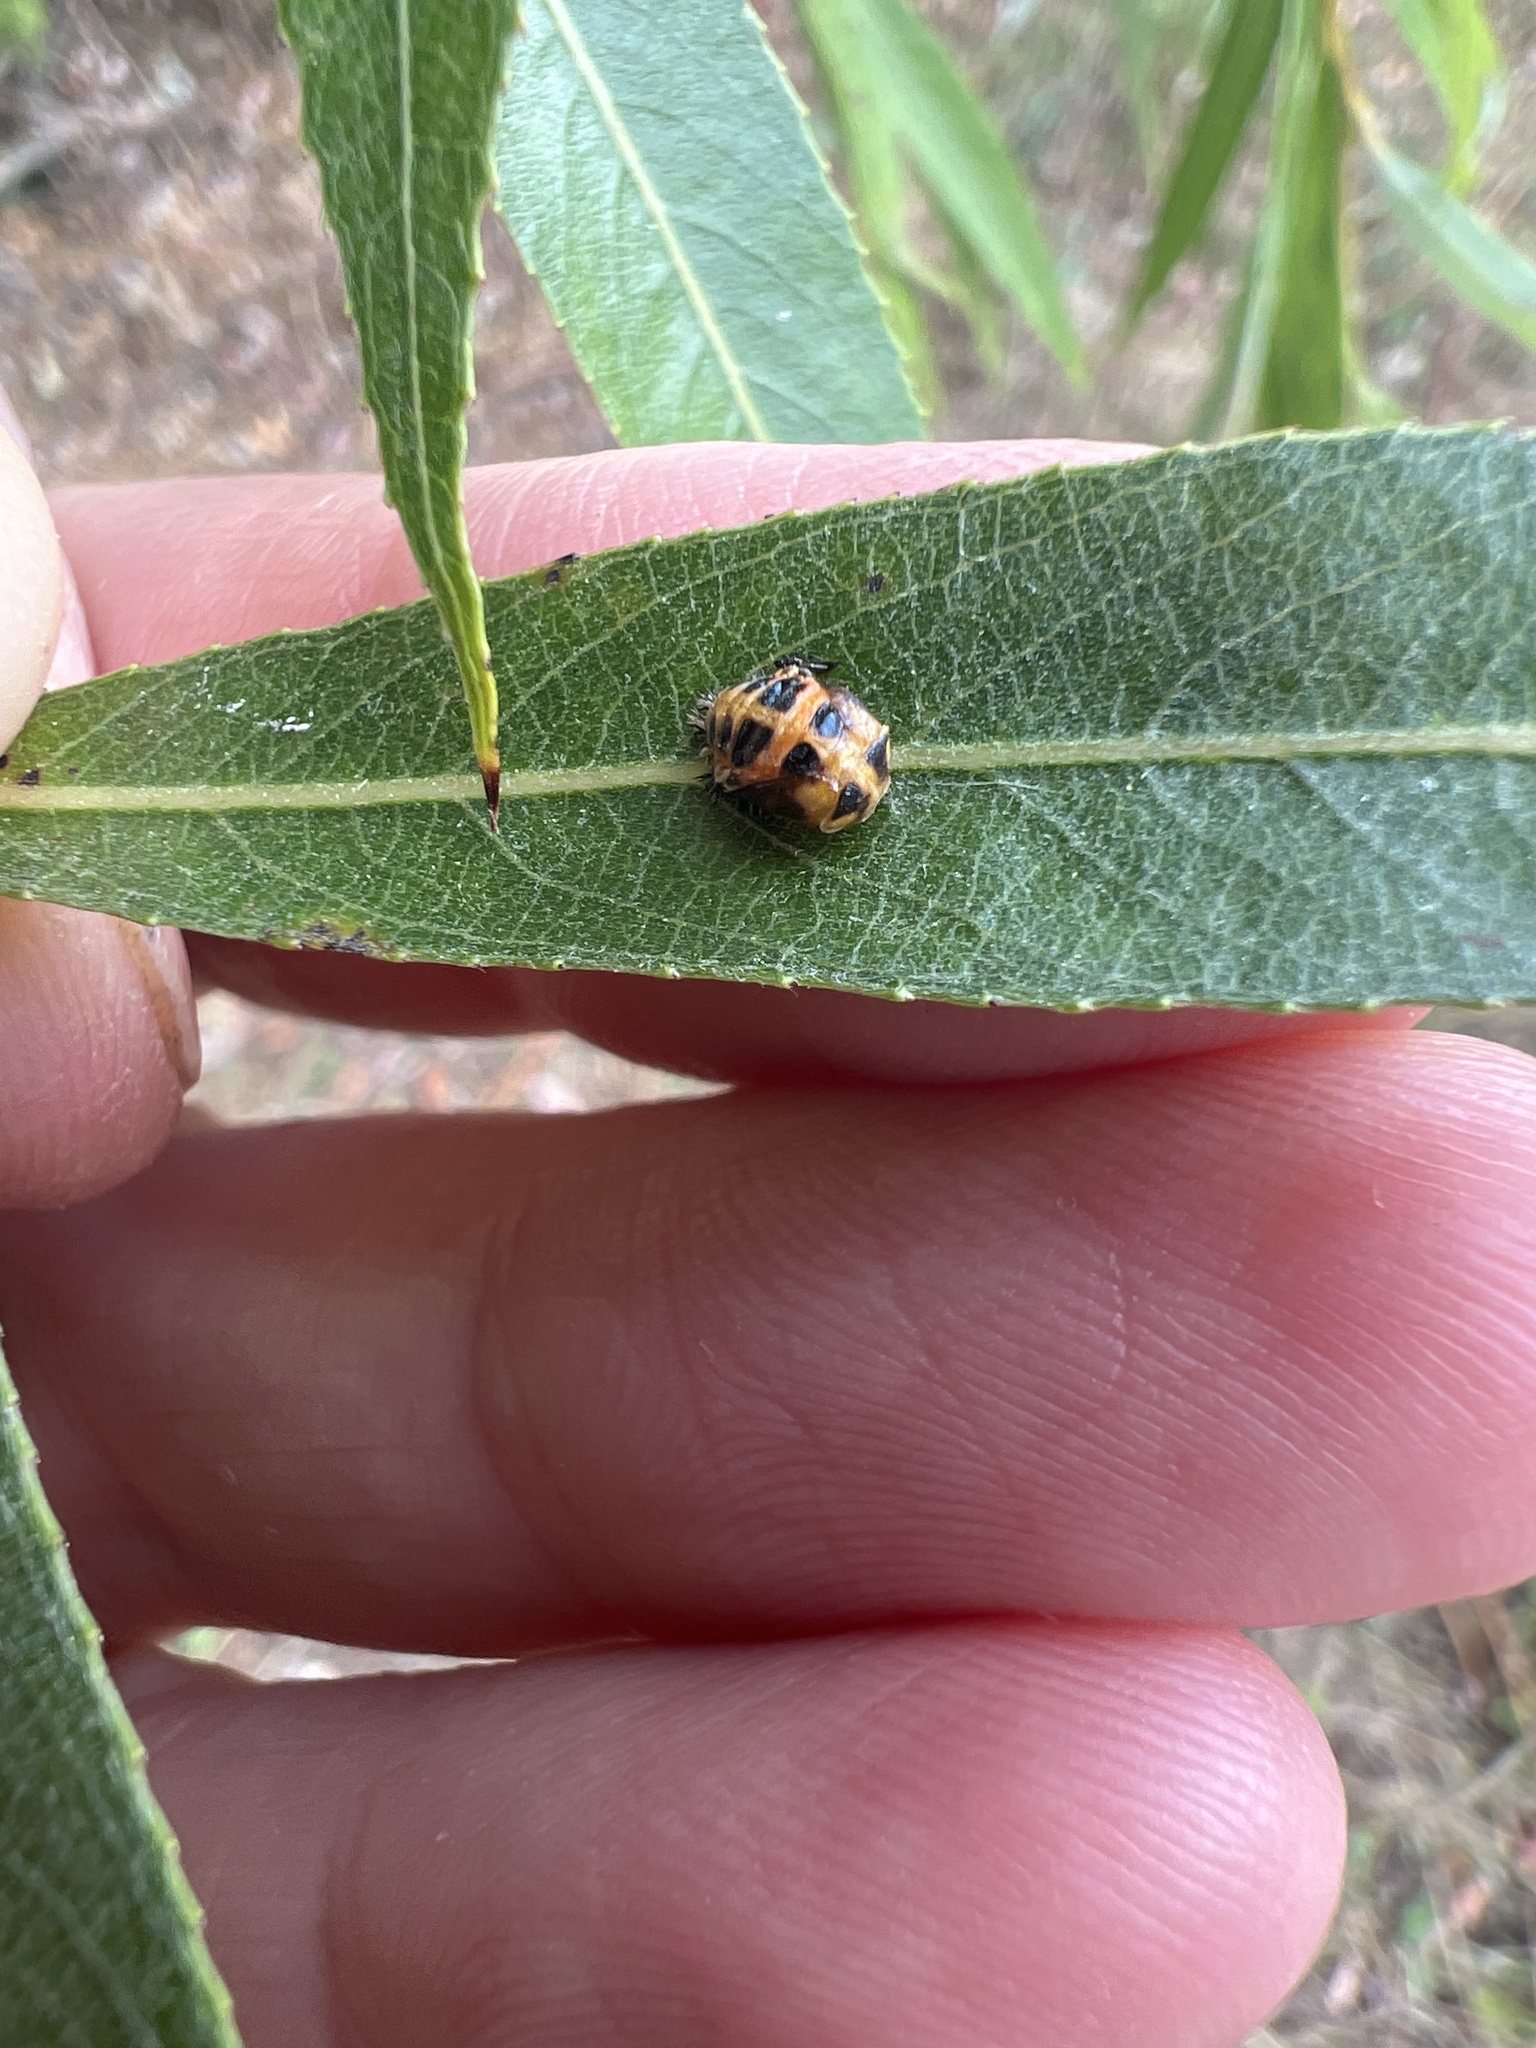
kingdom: Animalia
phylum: Arthropoda
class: Insecta
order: Coleoptera
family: Coccinellidae
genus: Harmonia
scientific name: Harmonia axyridis
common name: Harlequin ladybird
